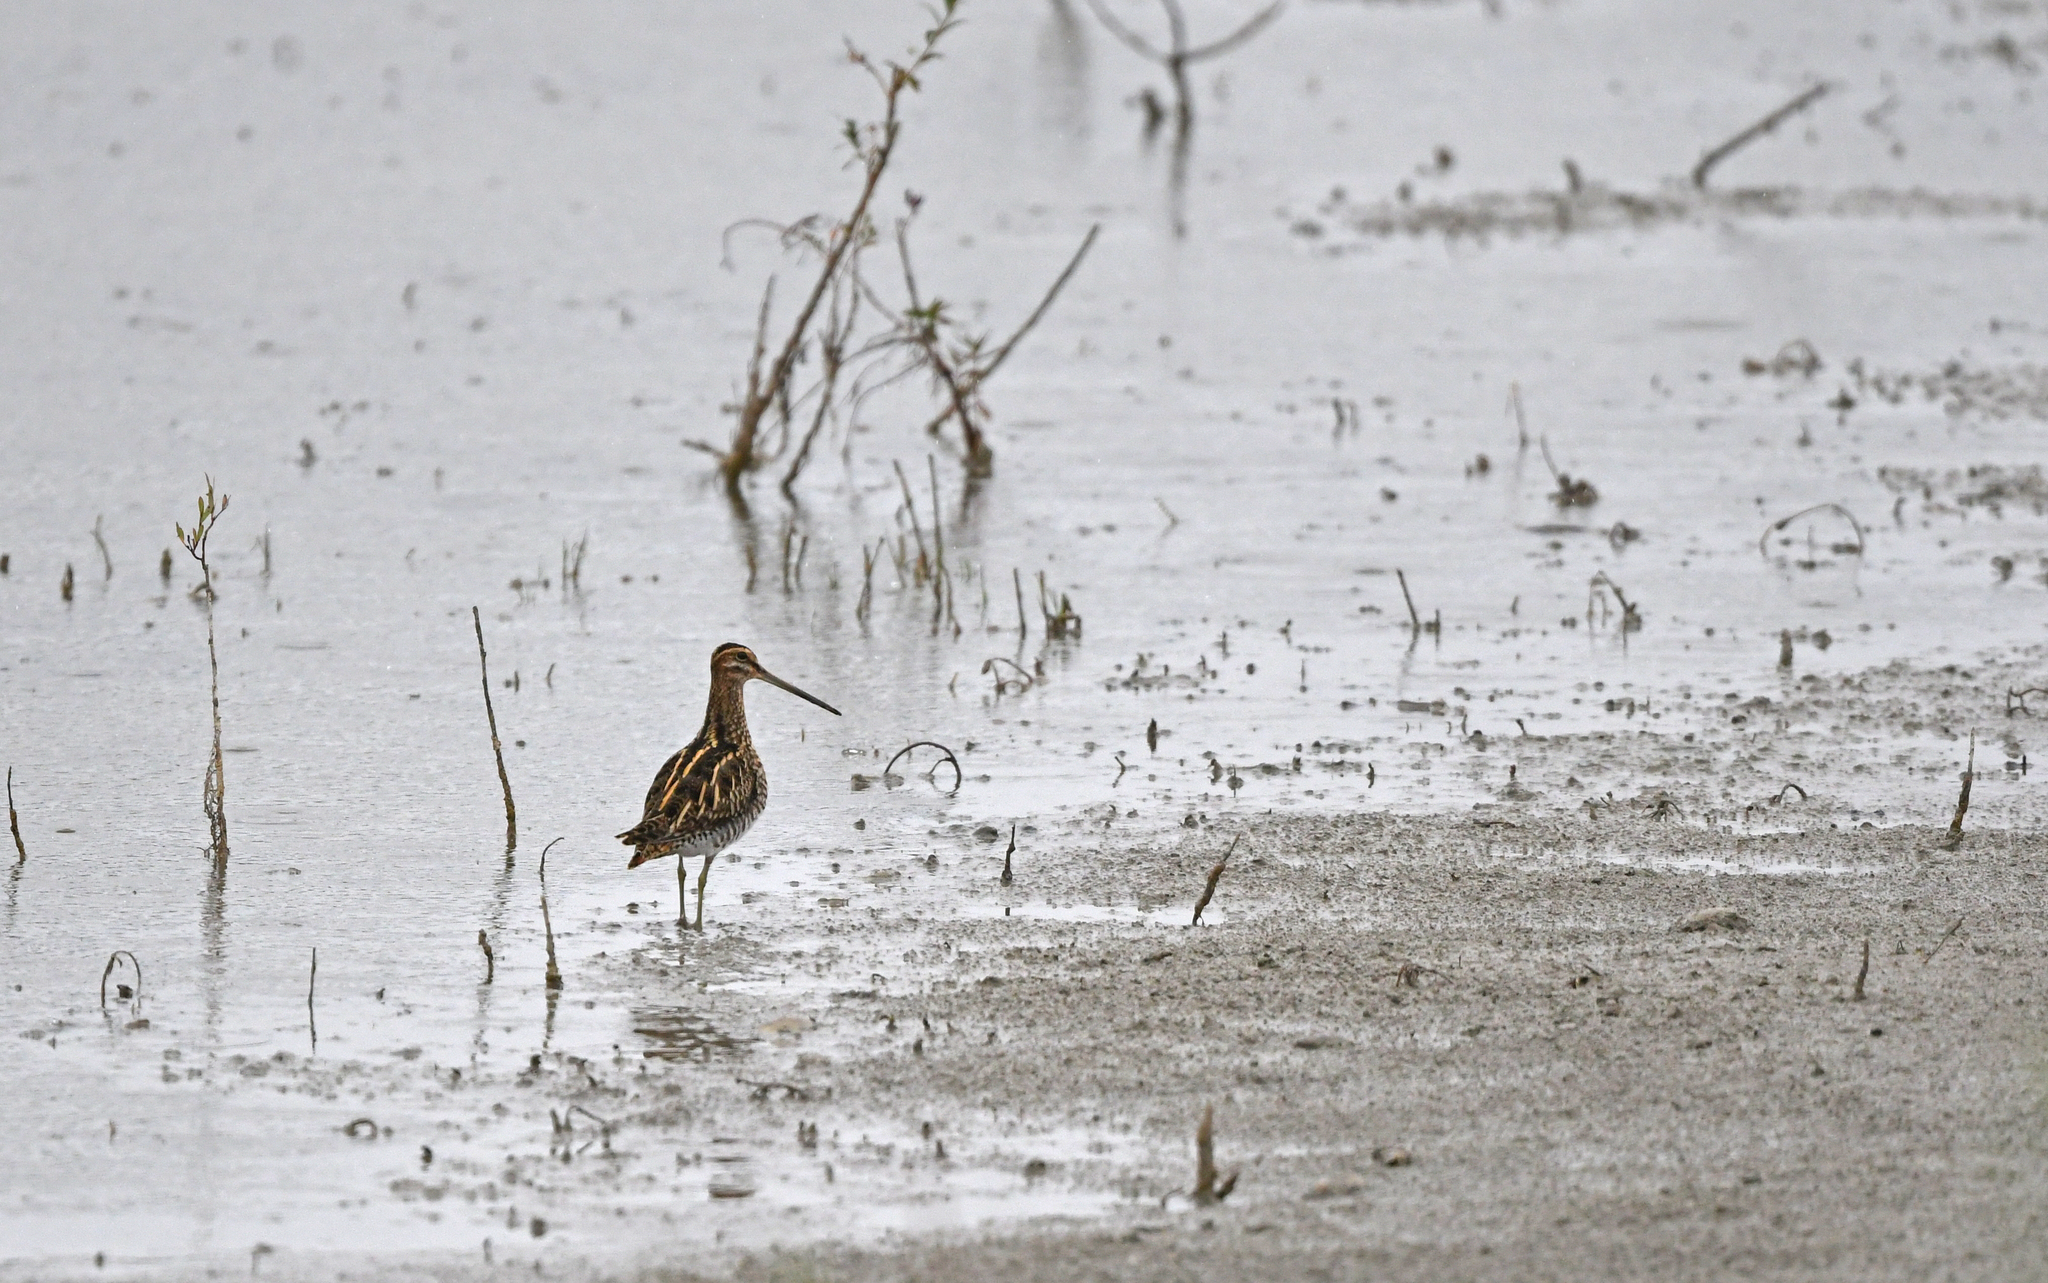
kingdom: Animalia
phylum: Chordata
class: Aves
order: Charadriiformes
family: Scolopacidae
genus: Gallinago
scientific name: Gallinago gallinago
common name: Common snipe
